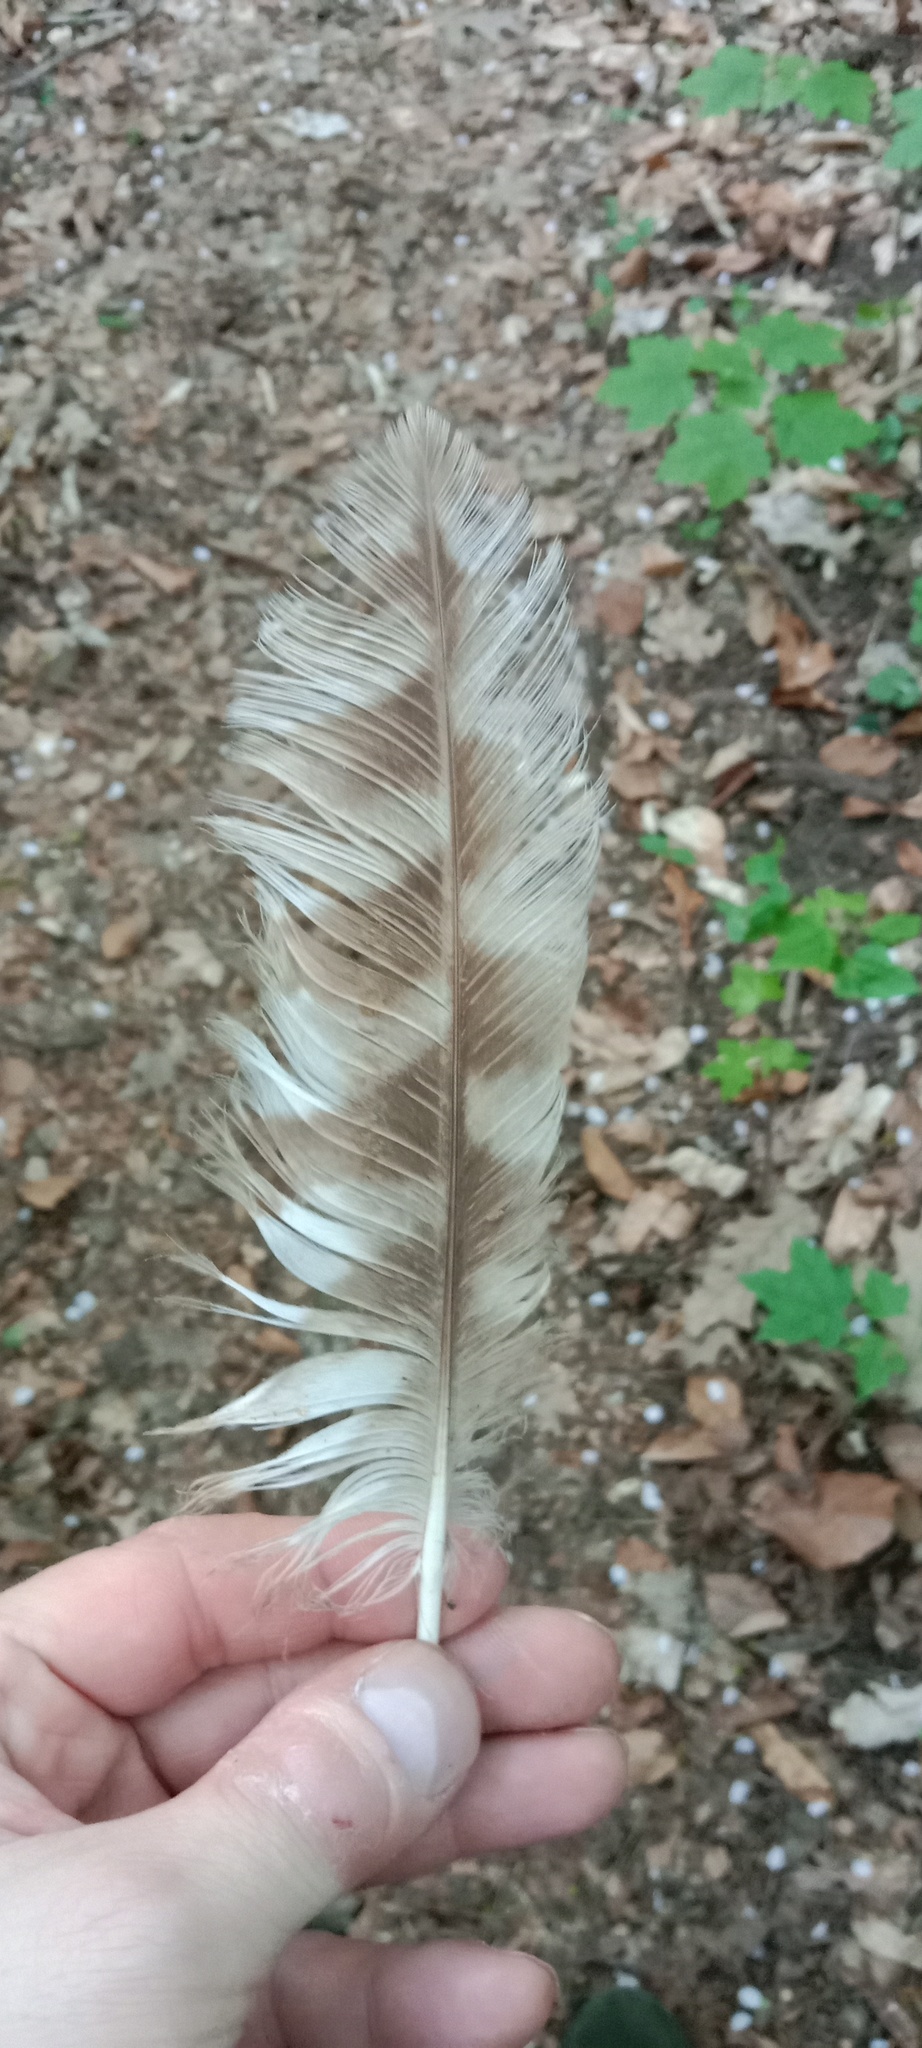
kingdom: Animalia
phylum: Chordata
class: Aves
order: Strigiformes
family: Strigidae
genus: Strix
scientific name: Strix uralensis
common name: Ural owl
